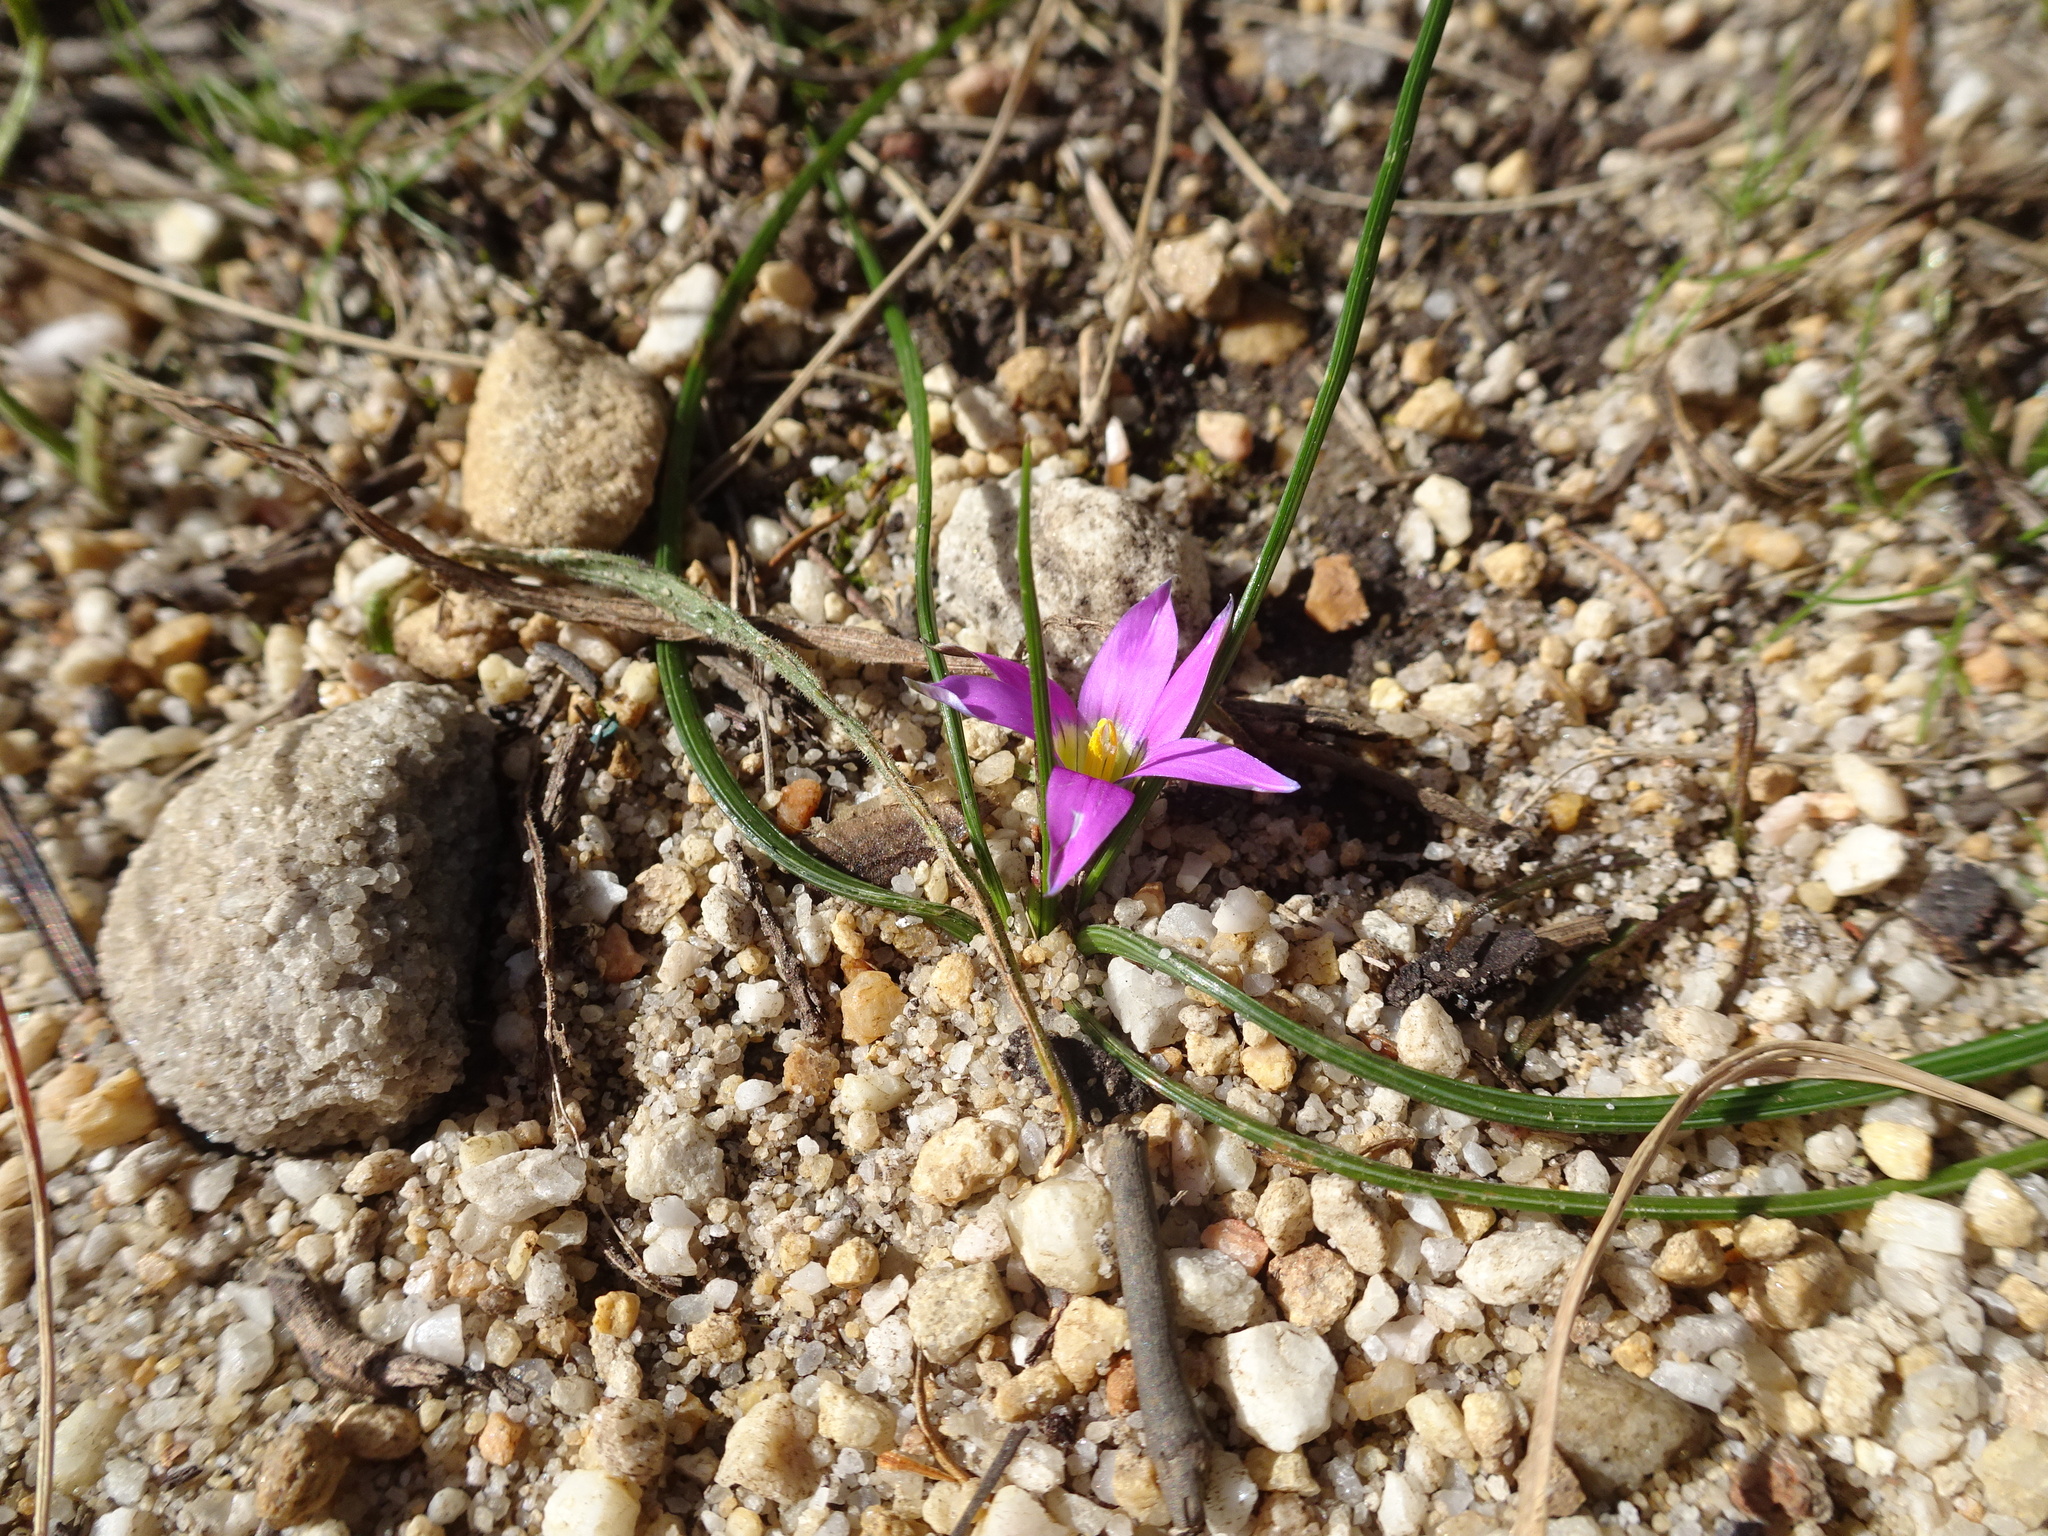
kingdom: Plantae
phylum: Tracheophyta
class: Liliopsida
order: Asparagales
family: Iridaceae
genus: Romulea
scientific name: Romulea rosea
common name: Oniongrass
